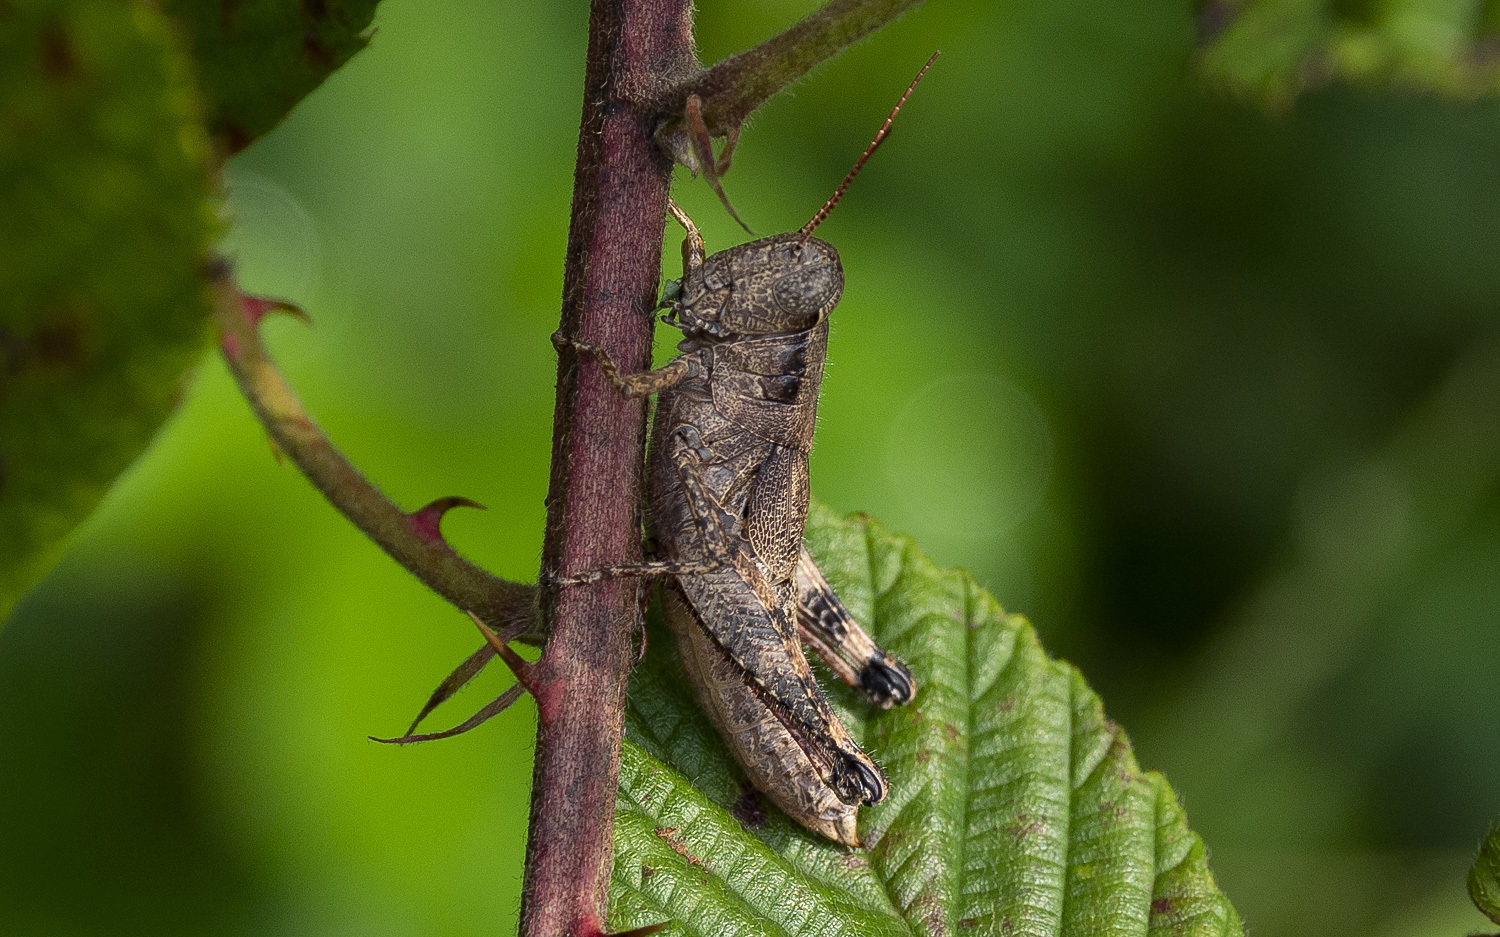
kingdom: Animalia
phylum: Arthropoda
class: Insecta
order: Orthoptera
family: Acrididae
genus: Melanoplus
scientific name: Melanoplus scudderi
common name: Scudder's short-winged locust
